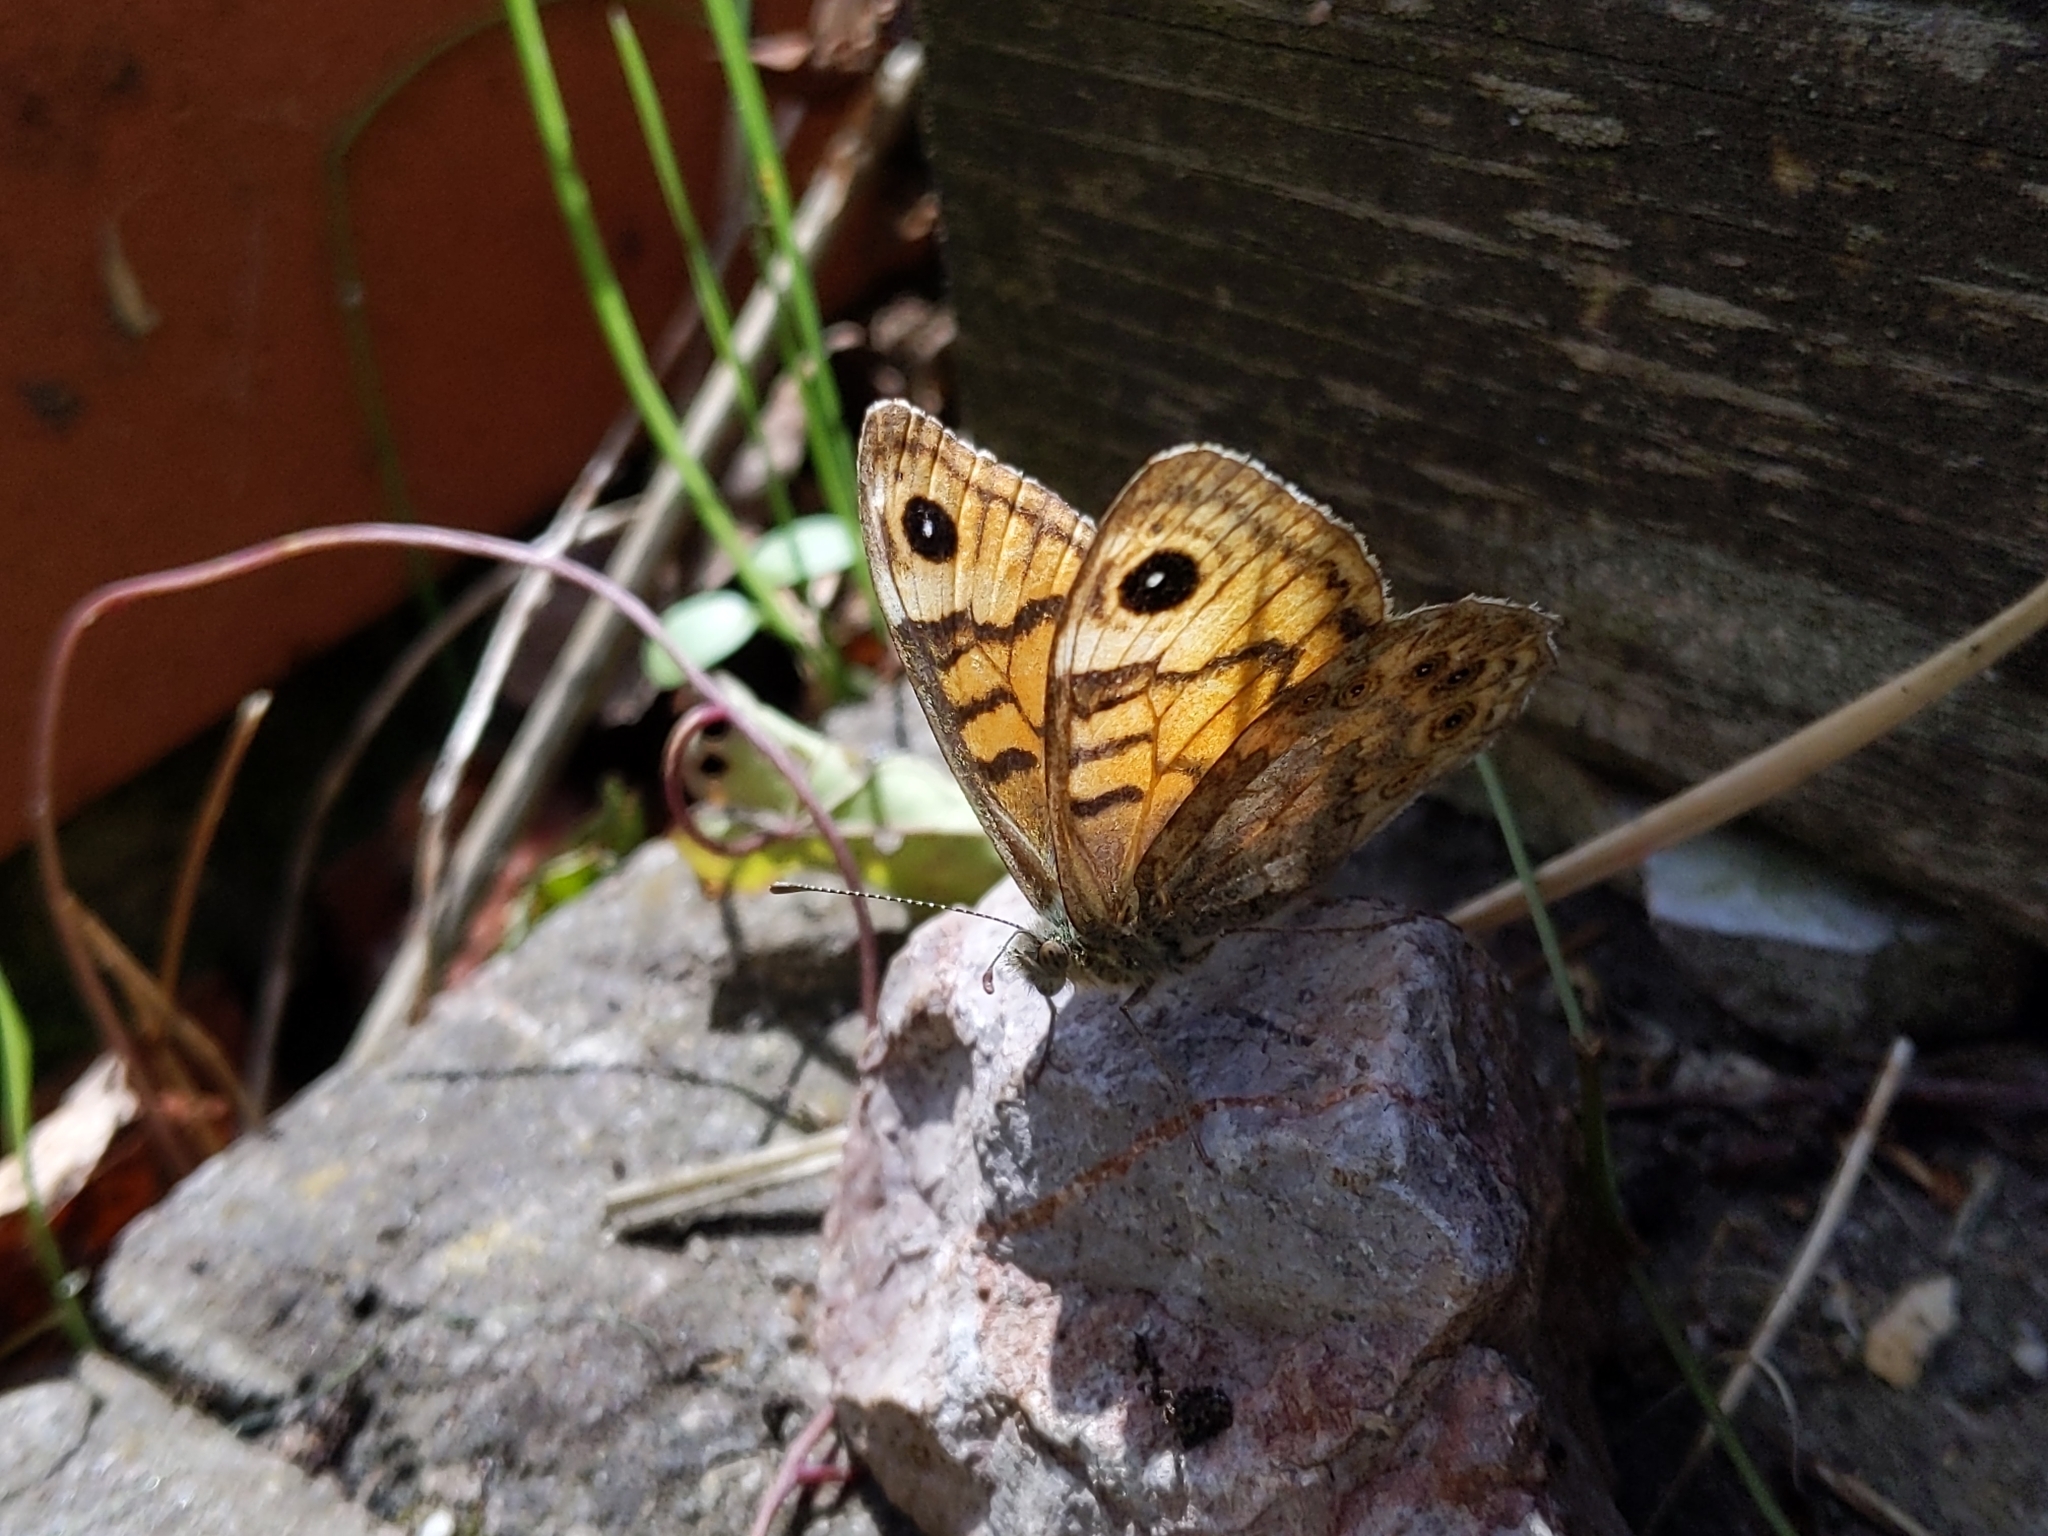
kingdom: Animalia
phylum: Arthropoda
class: Insecta
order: Lepidoptera
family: Nymphalidae
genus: Pararge
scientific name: Pararge Lasiommata megera
